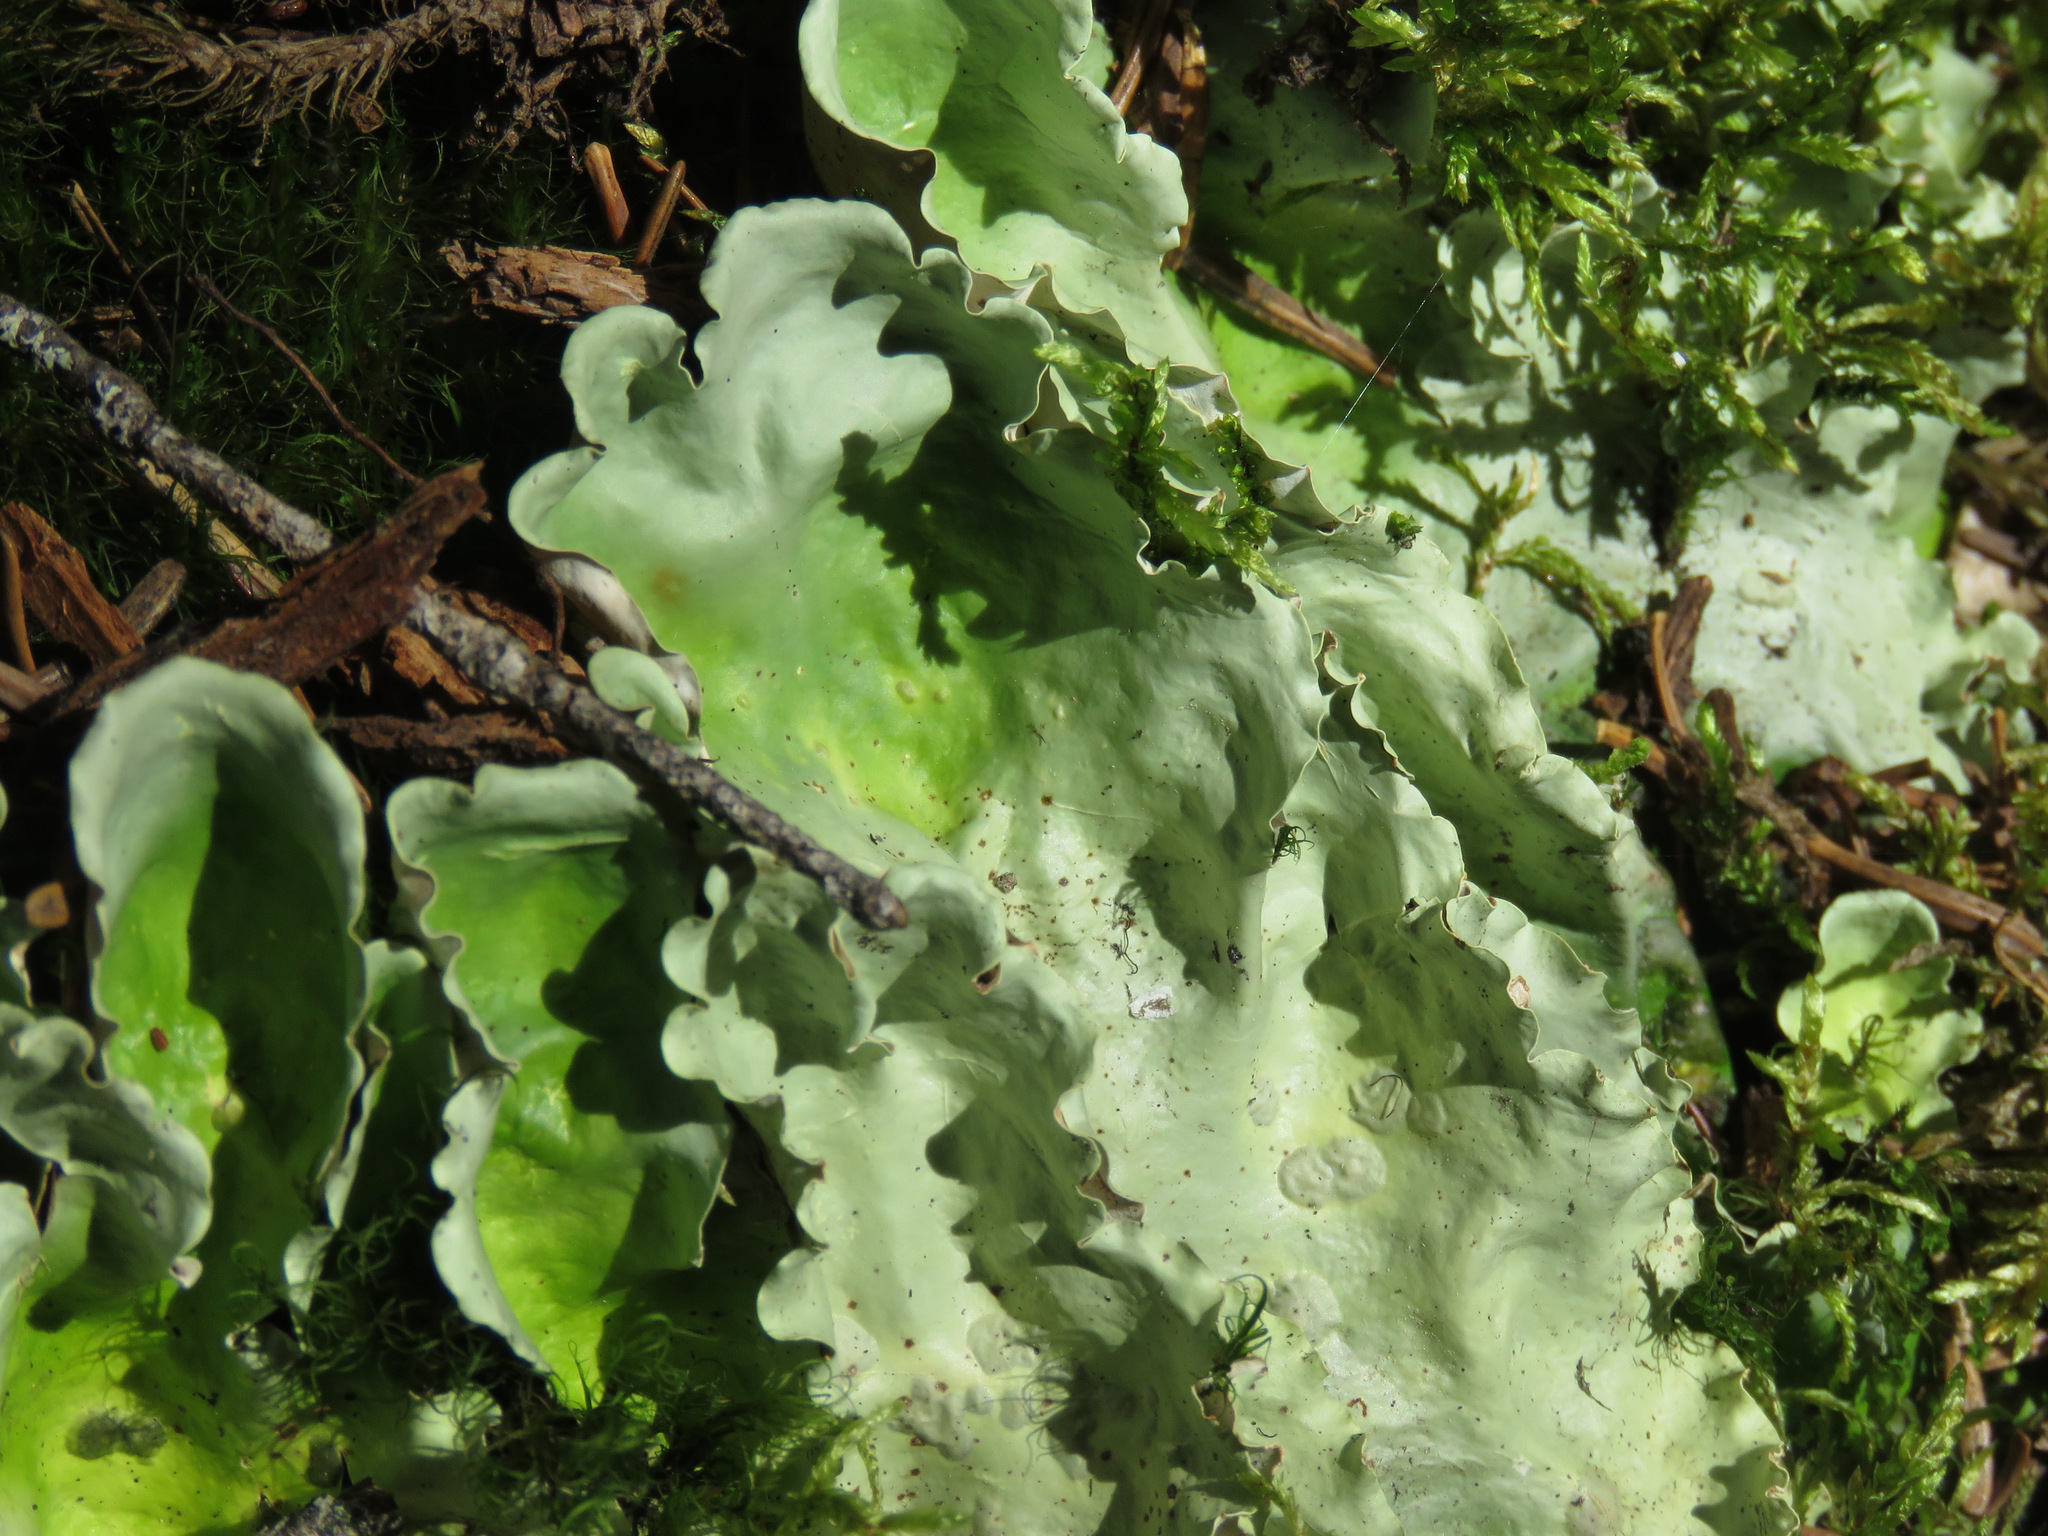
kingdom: Fungi
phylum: Ascomycota
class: Lecanoromycetes
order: Peltigerales
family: Nephromataceae
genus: Nephroma
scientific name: Nephroma arcticum
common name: Arctic kidney-lichen
